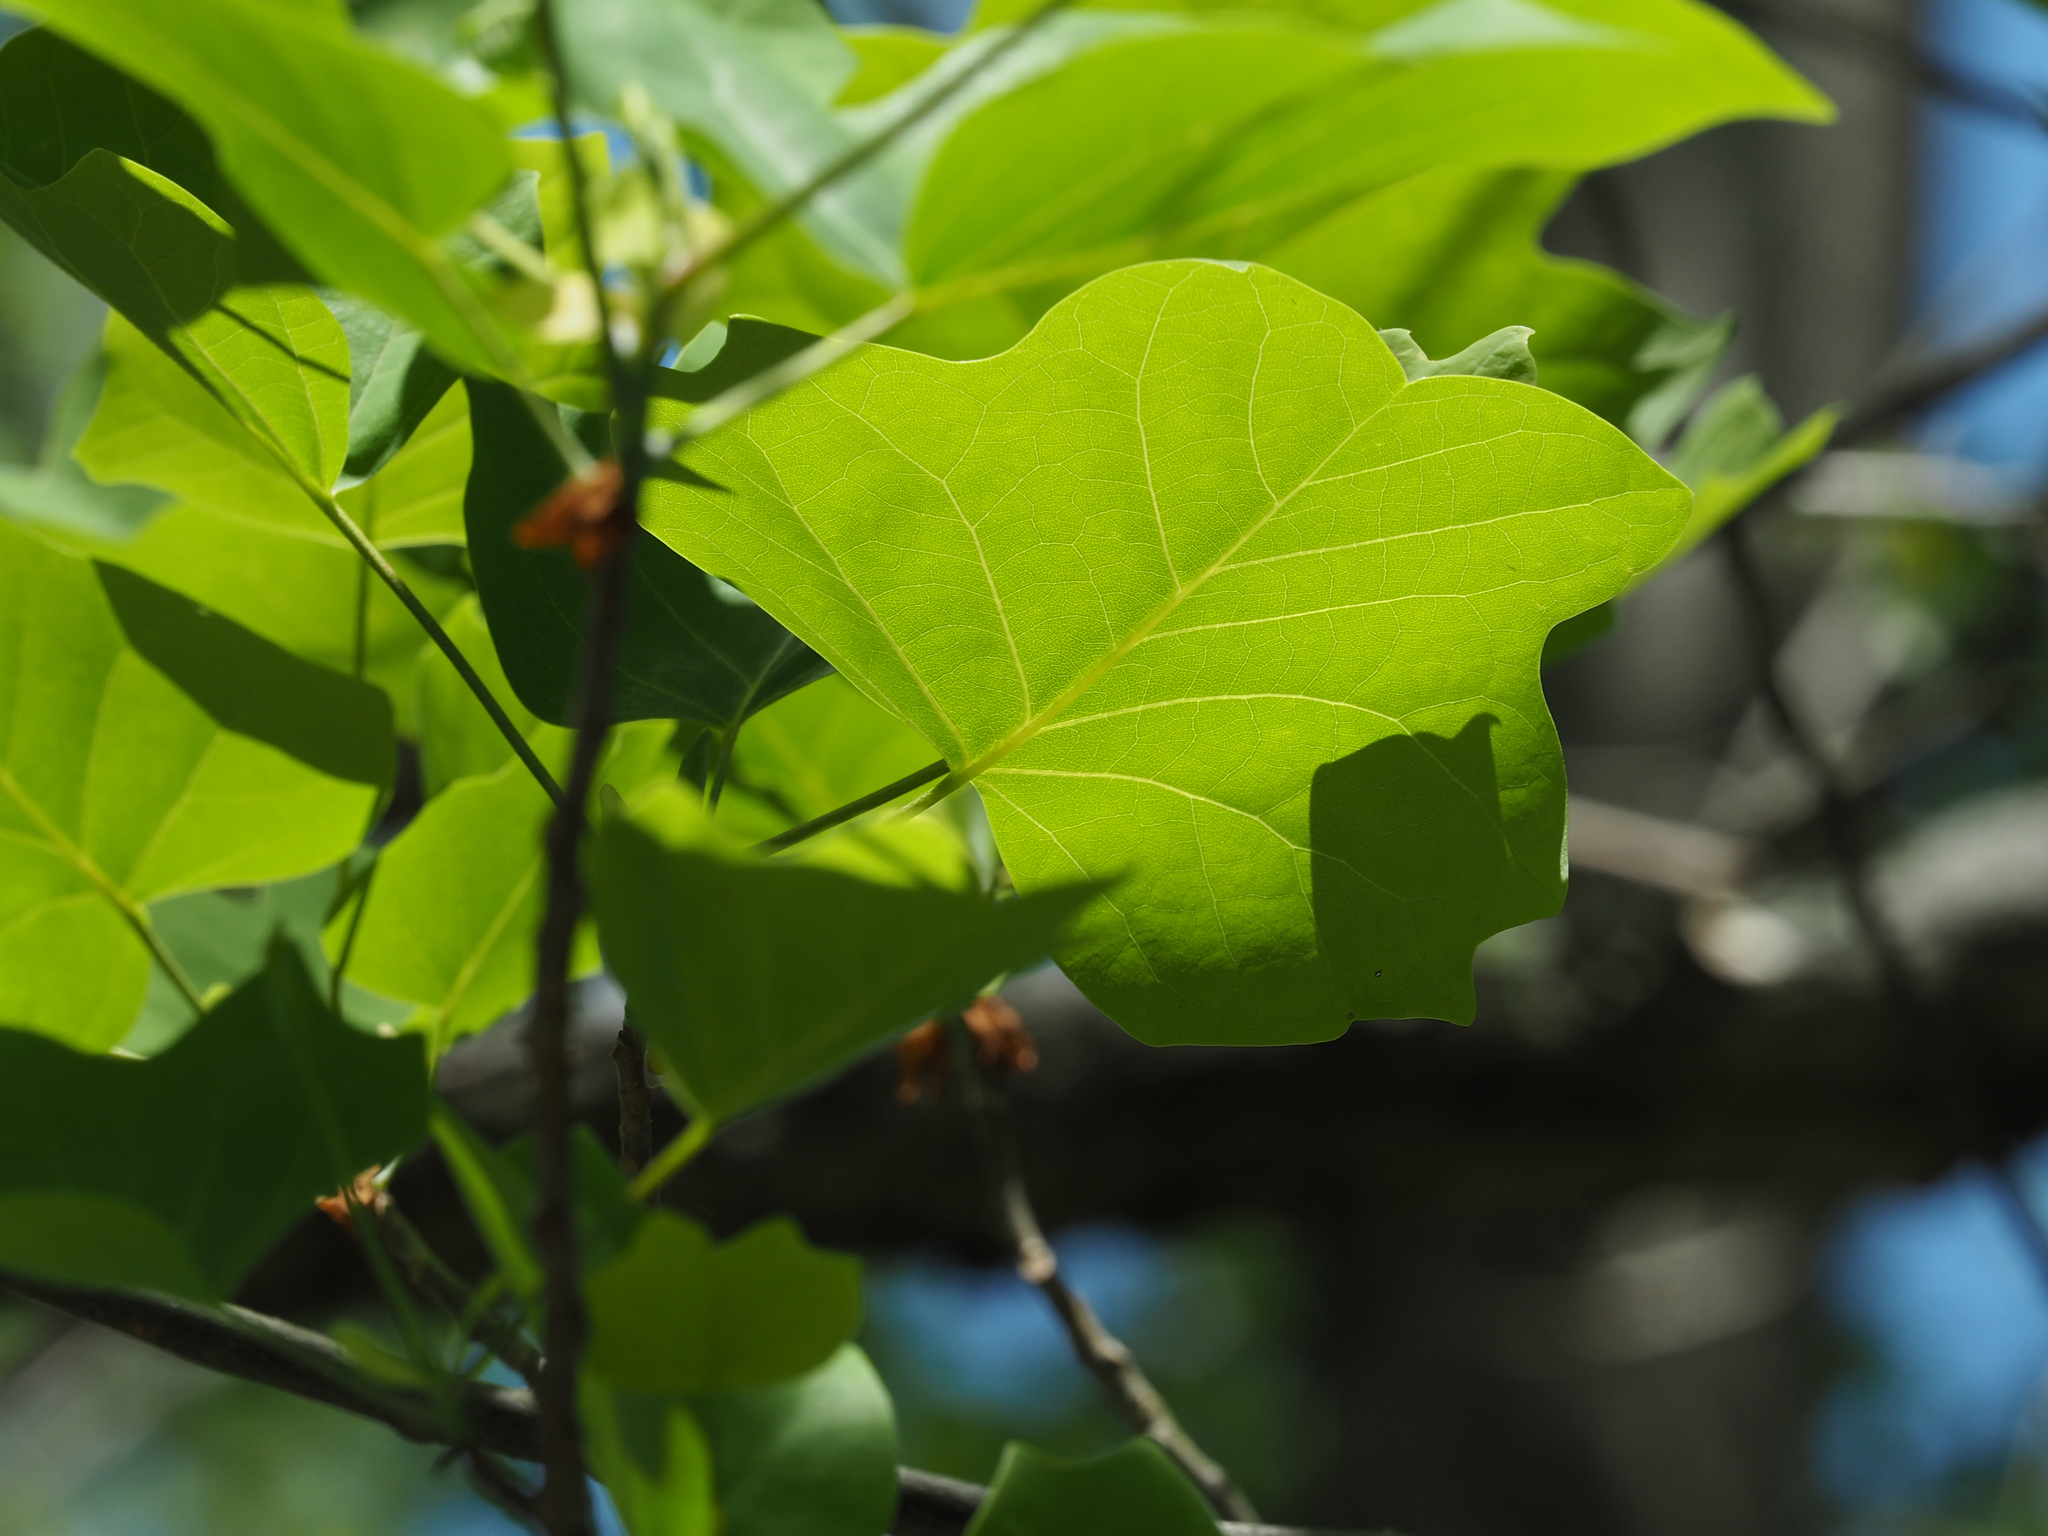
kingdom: Plantae
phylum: Tracheophyta
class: Magnoliopsida
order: Magnoliales
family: Magnoliaceae
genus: Liriodendron
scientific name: Liriodendron tulipifera
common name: Tulip tree
